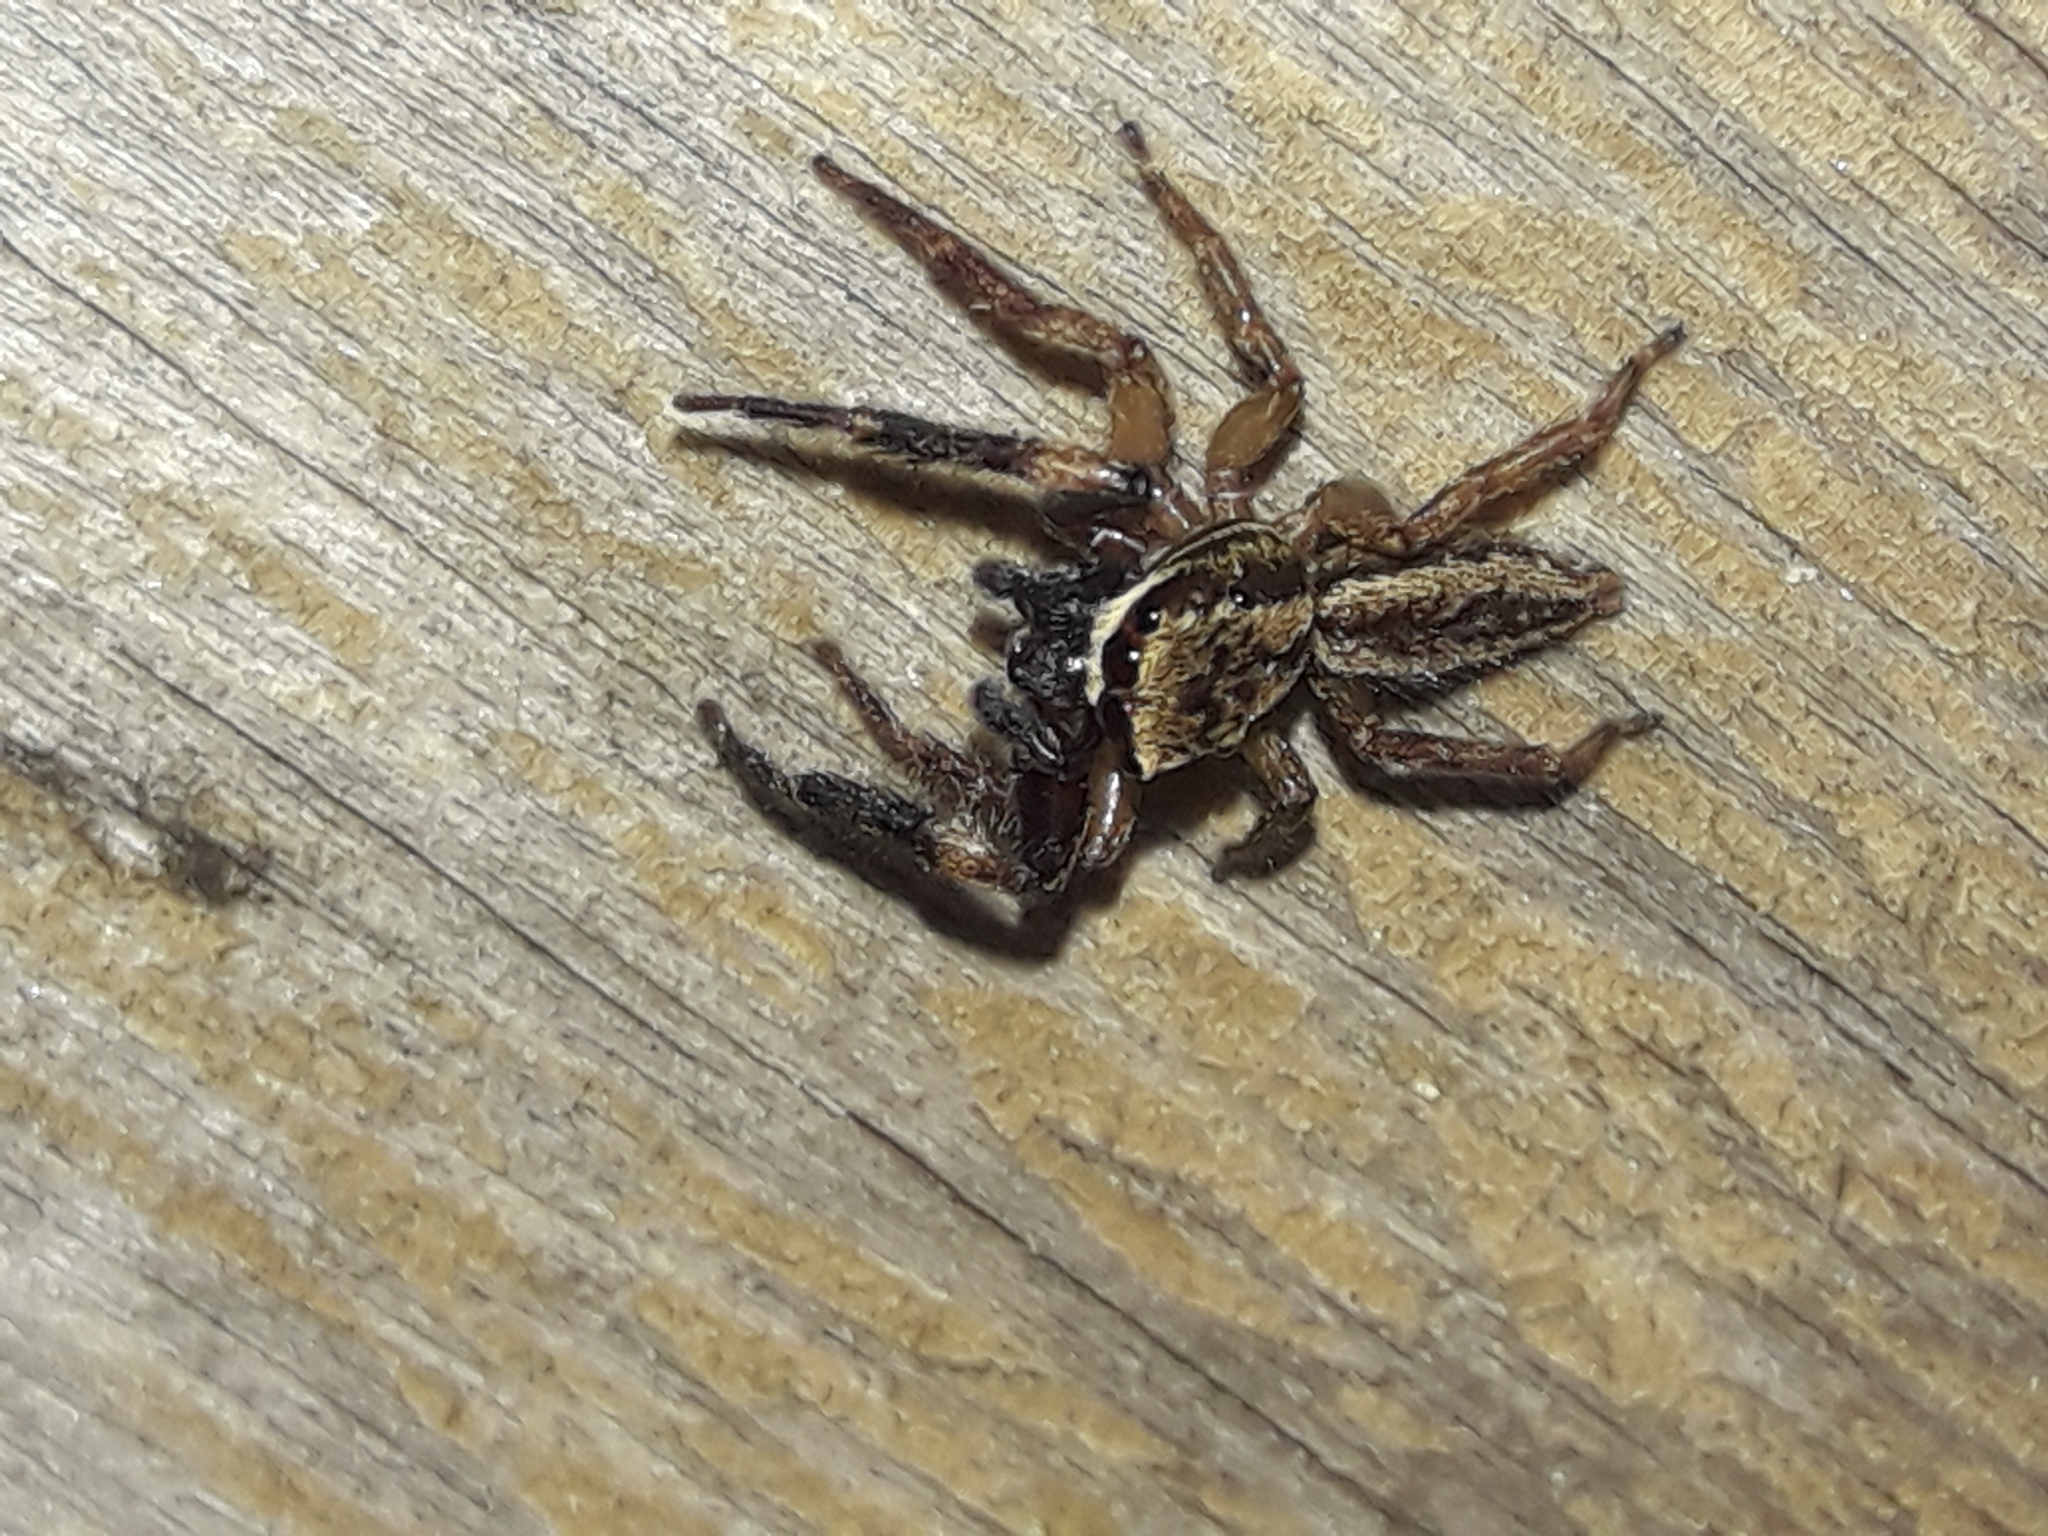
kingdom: Animalia
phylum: Arthropoda
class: Arachnida
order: Araneae
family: Salticidae
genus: Trite
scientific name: Trite auricoma
